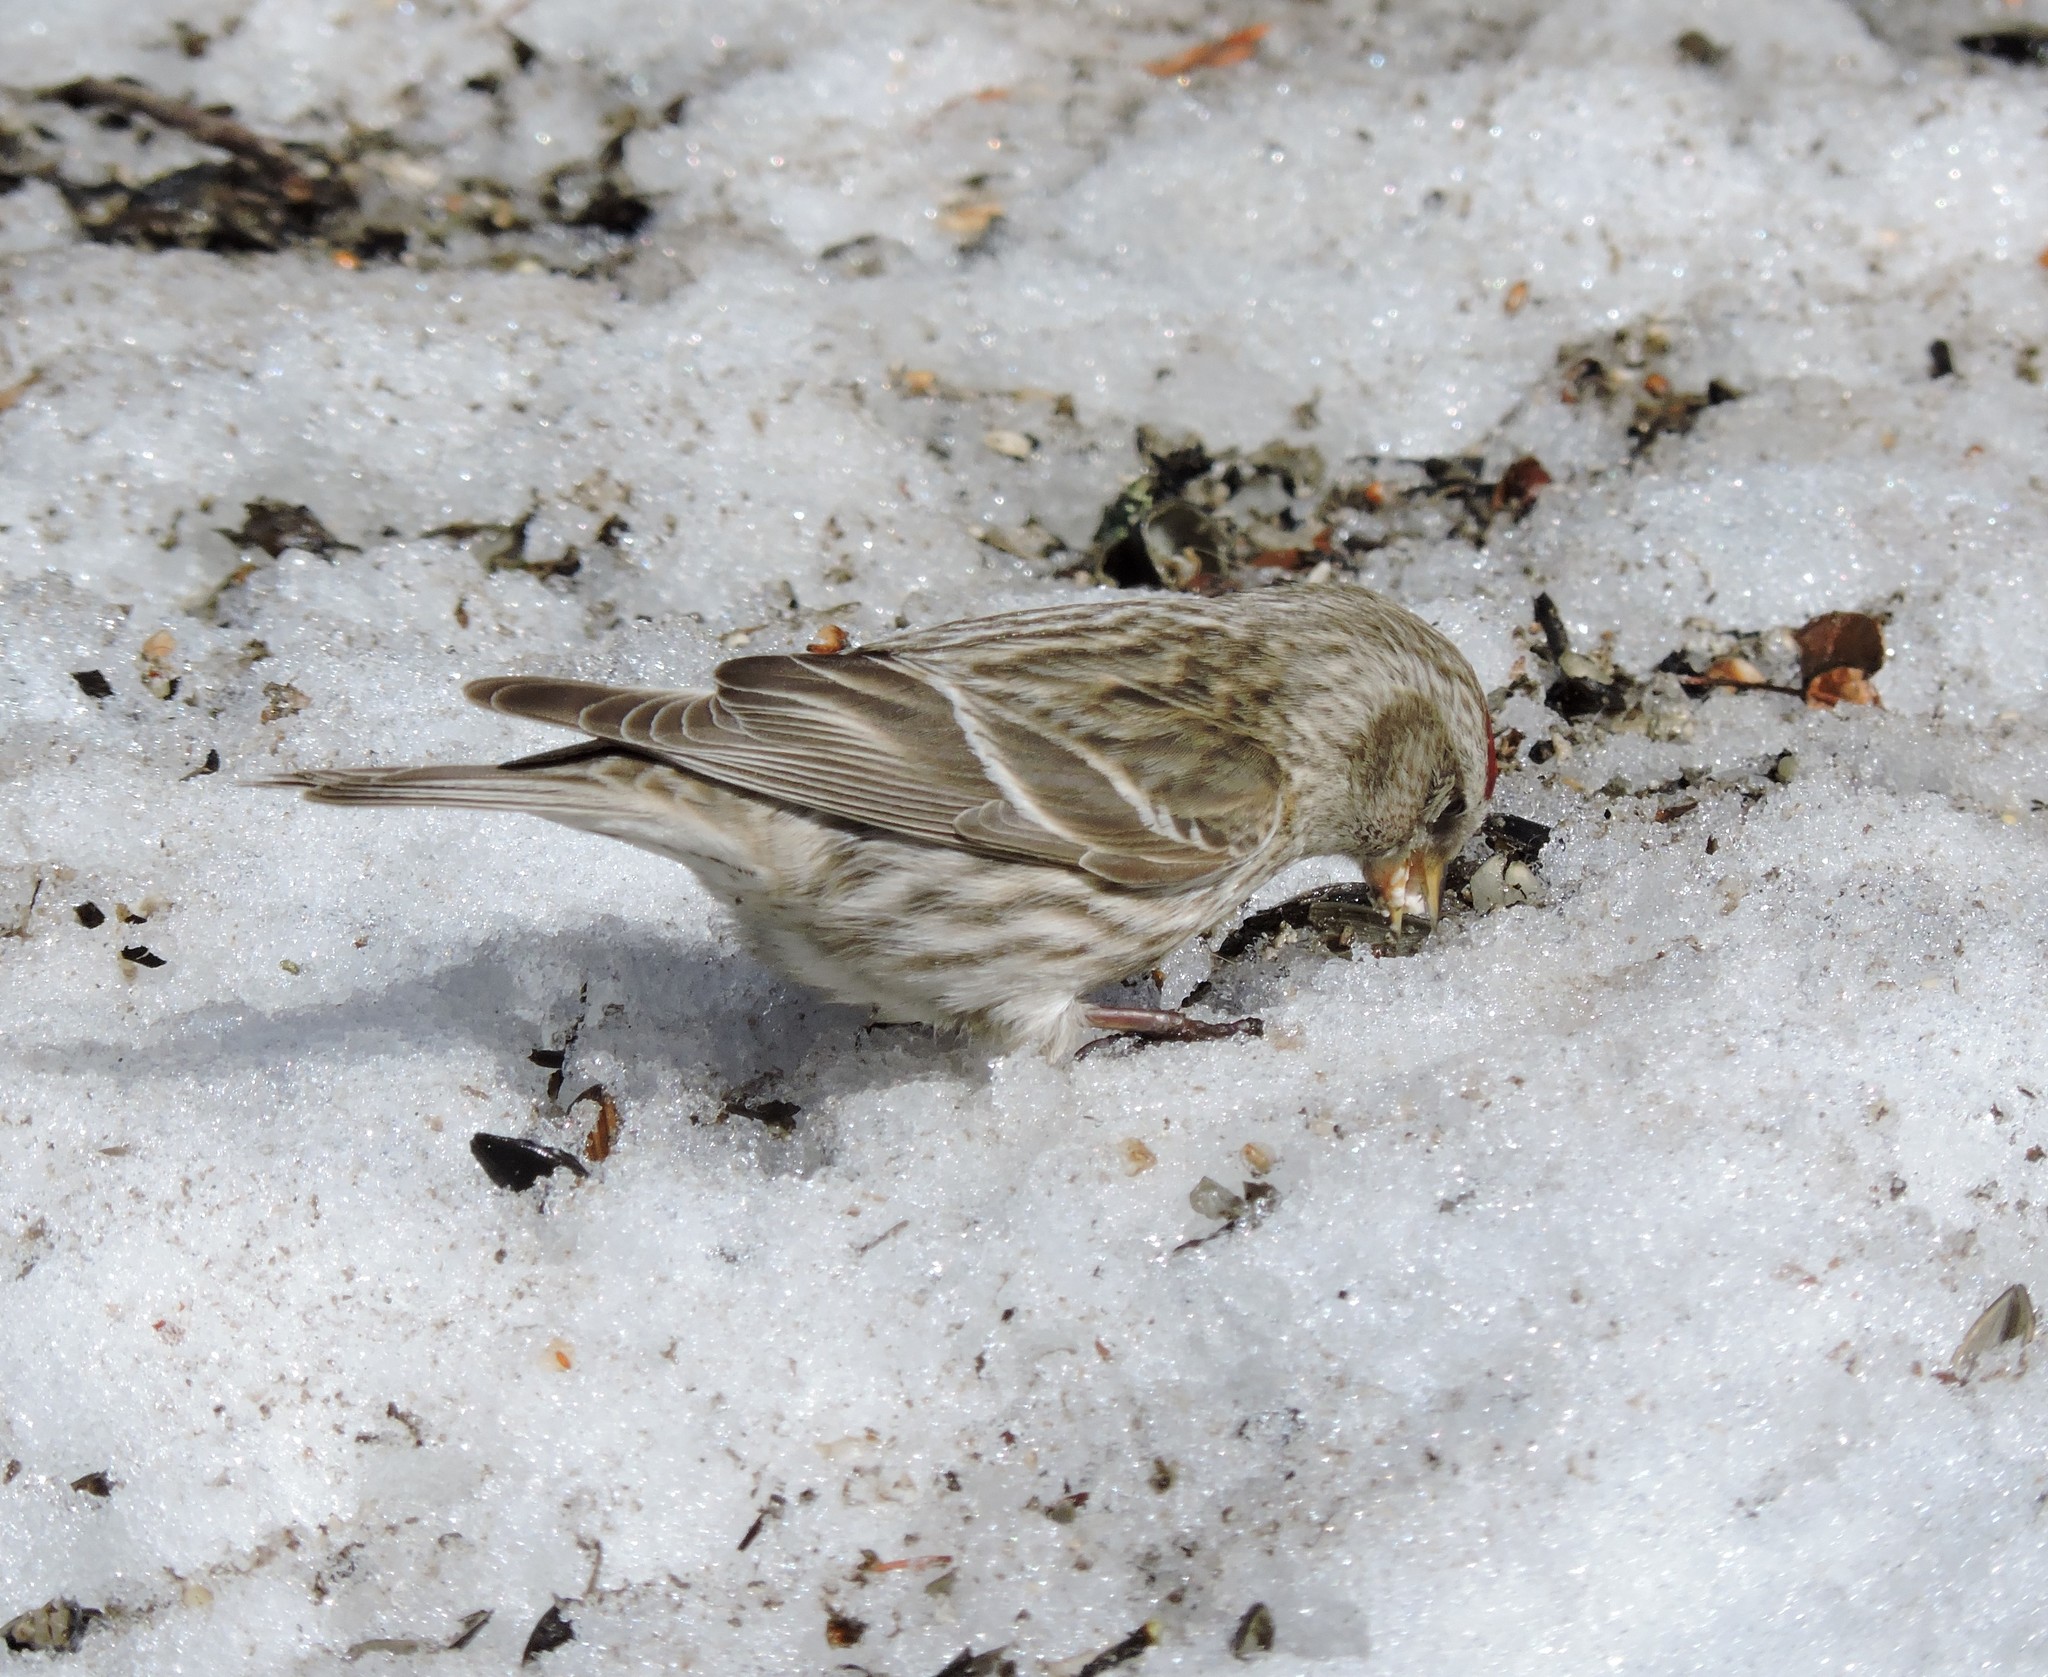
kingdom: Animalia
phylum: Chordata
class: Aves
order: Passeriformes
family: Fringillidae
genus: Acanthis
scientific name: Acanthis flammea
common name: Common redpoll
